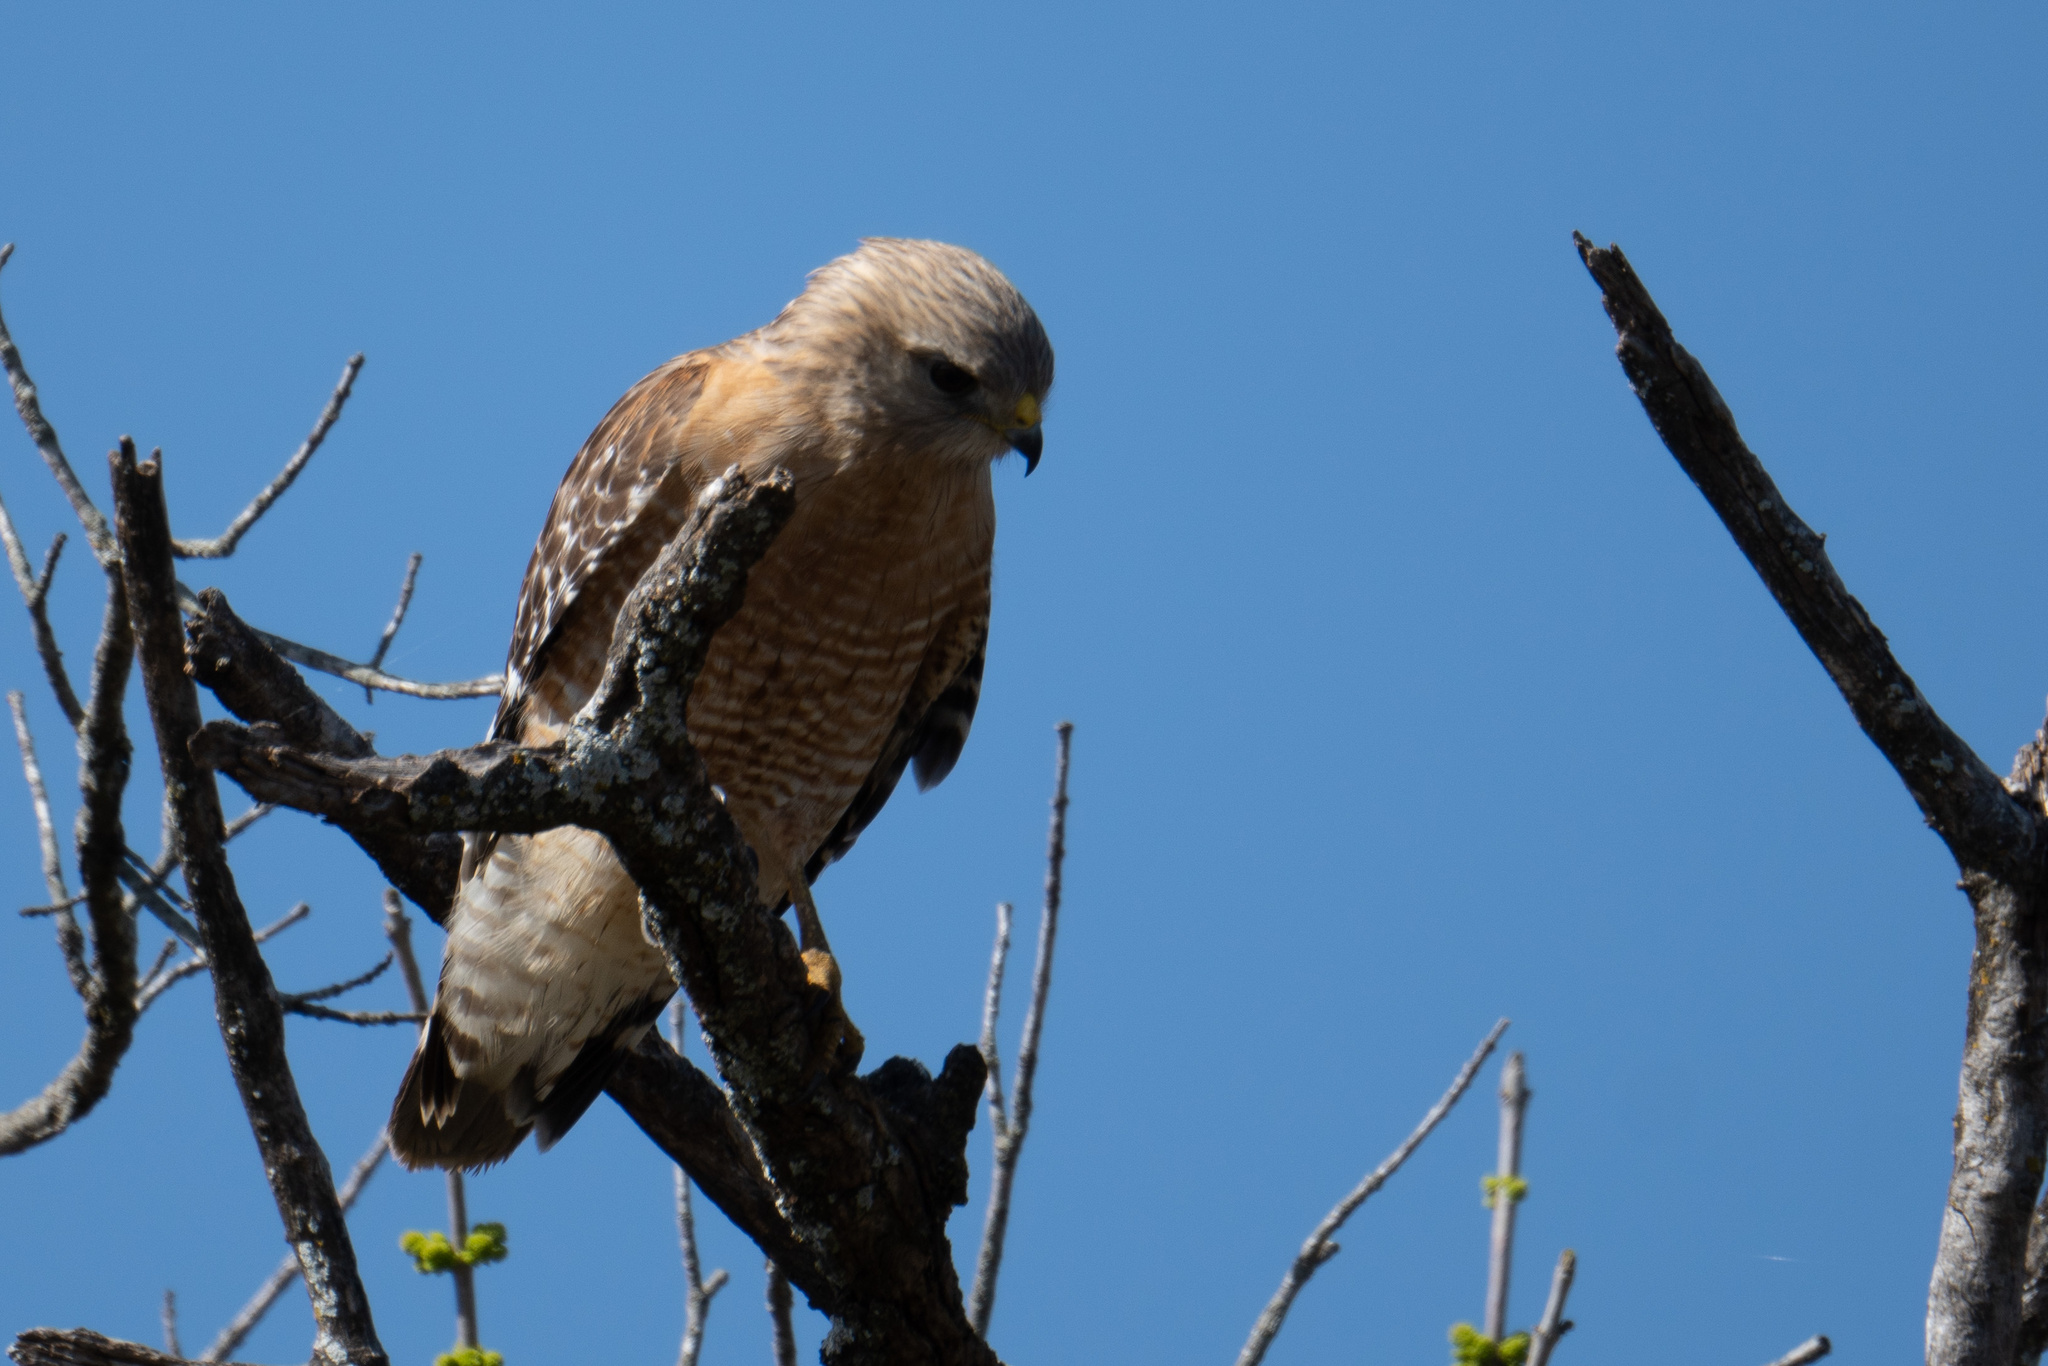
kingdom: Animalia
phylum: Chordata
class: Aves
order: Accipitriformes
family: Accipitridae
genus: Buteo
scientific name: Buteo lineatus
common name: Red-shouldered hawk
